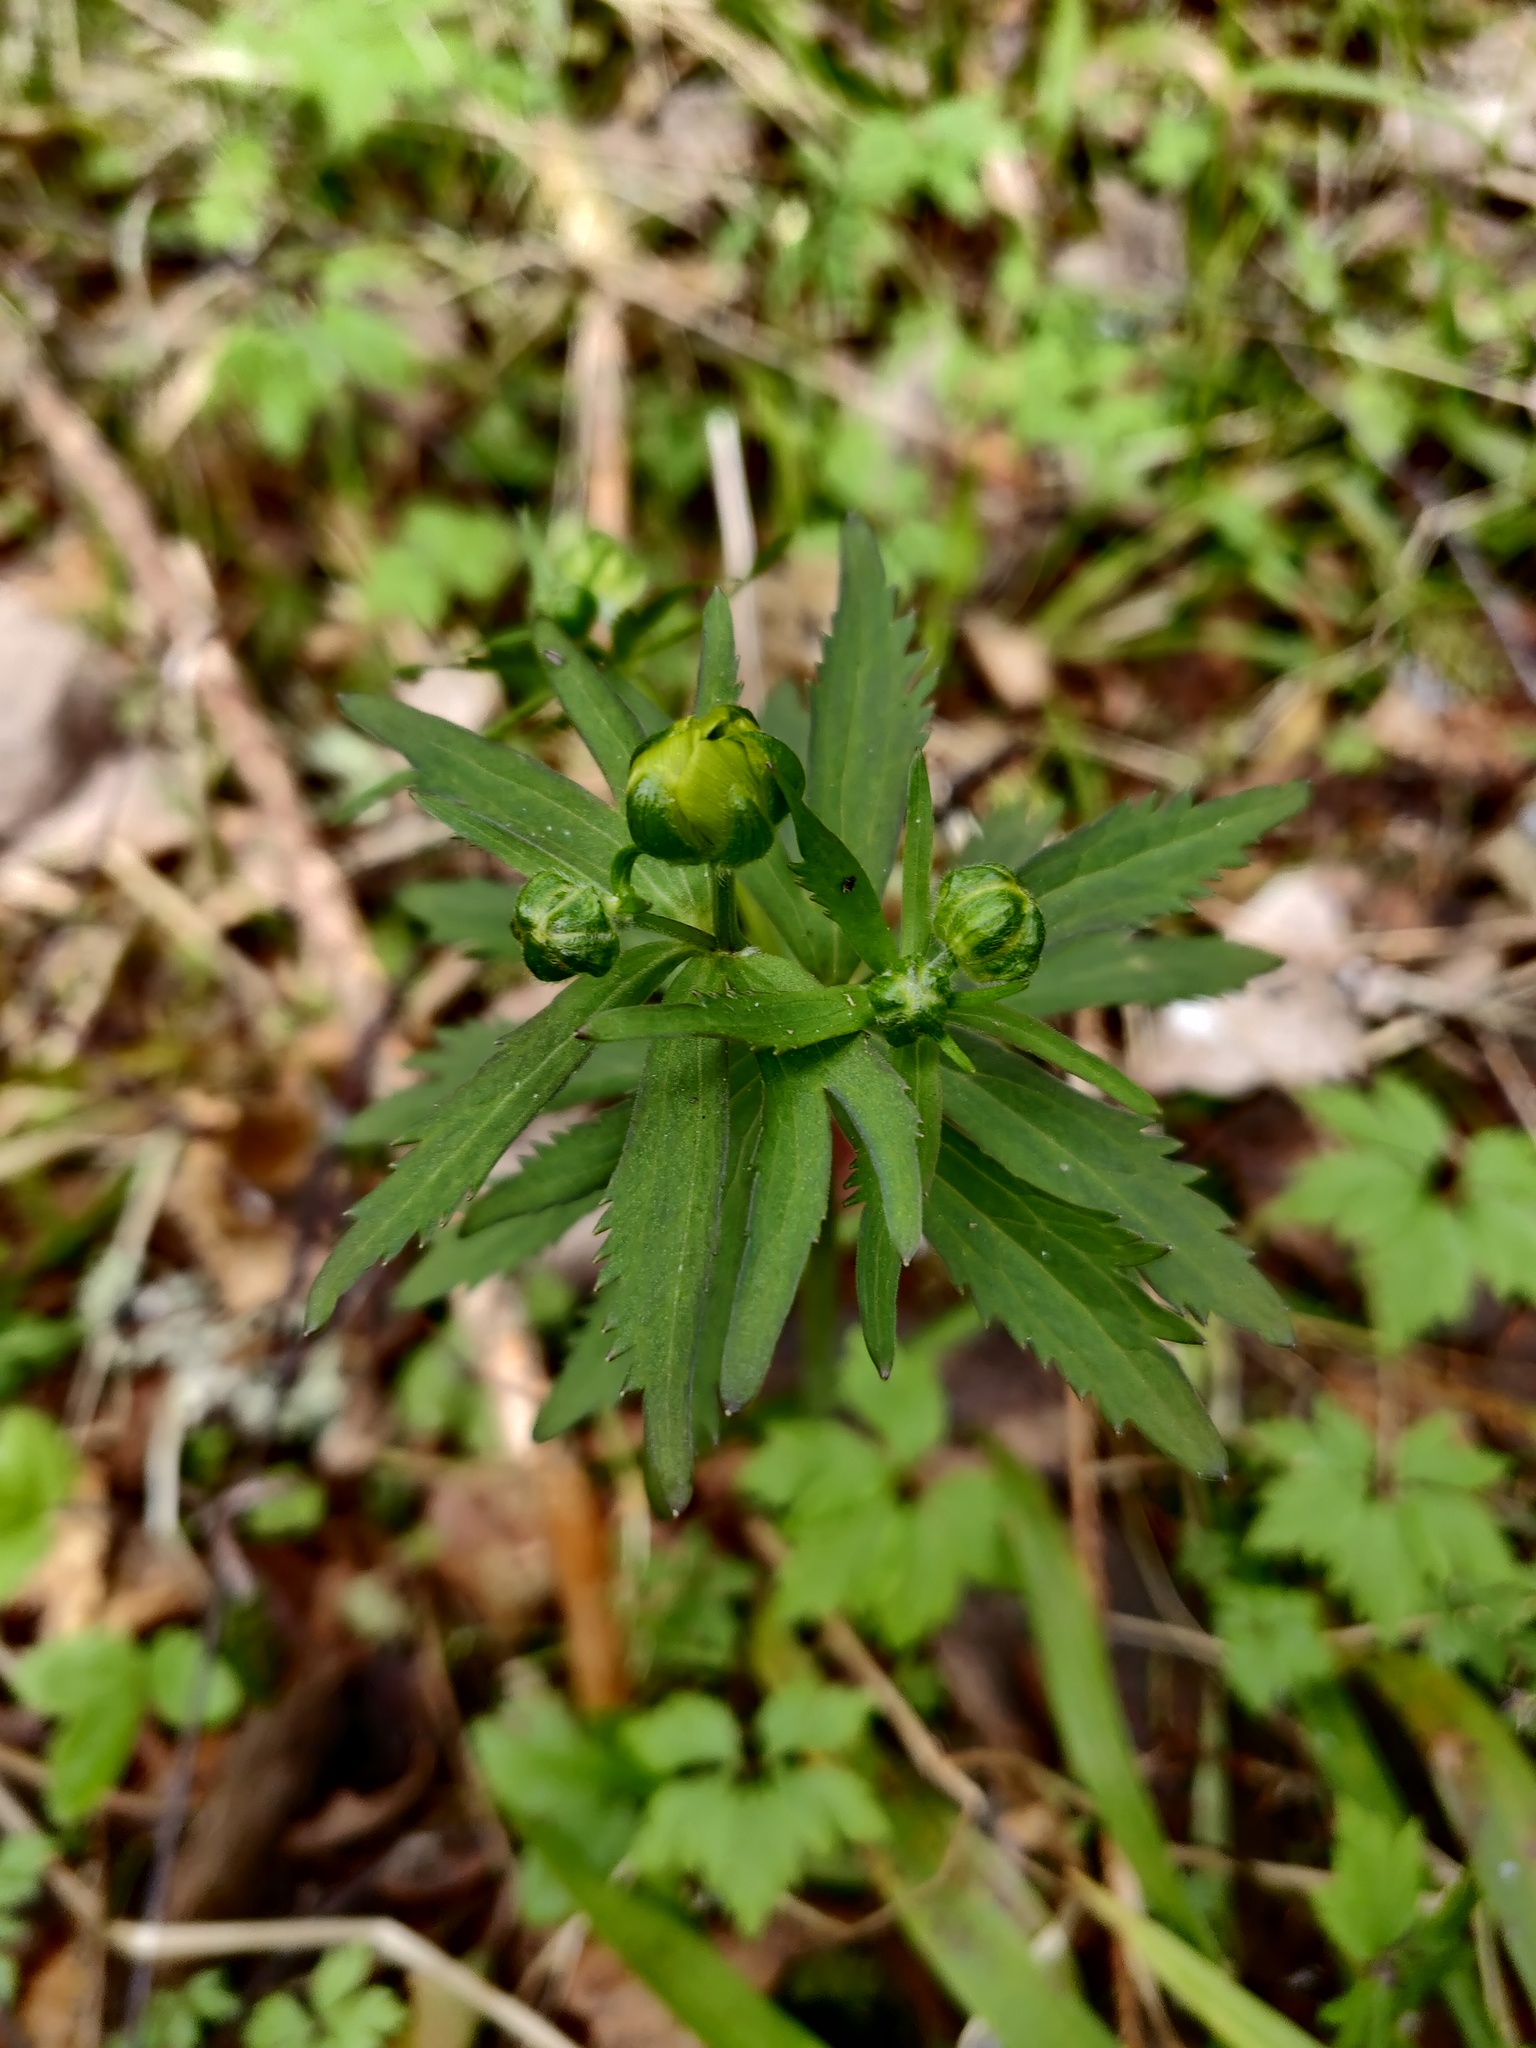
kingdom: Plantae
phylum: Tracheophyta
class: Magnoliopsida
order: Ranunculales
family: Ranunculaceae
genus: Ranunculus
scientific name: Ranunculus cassubicus
